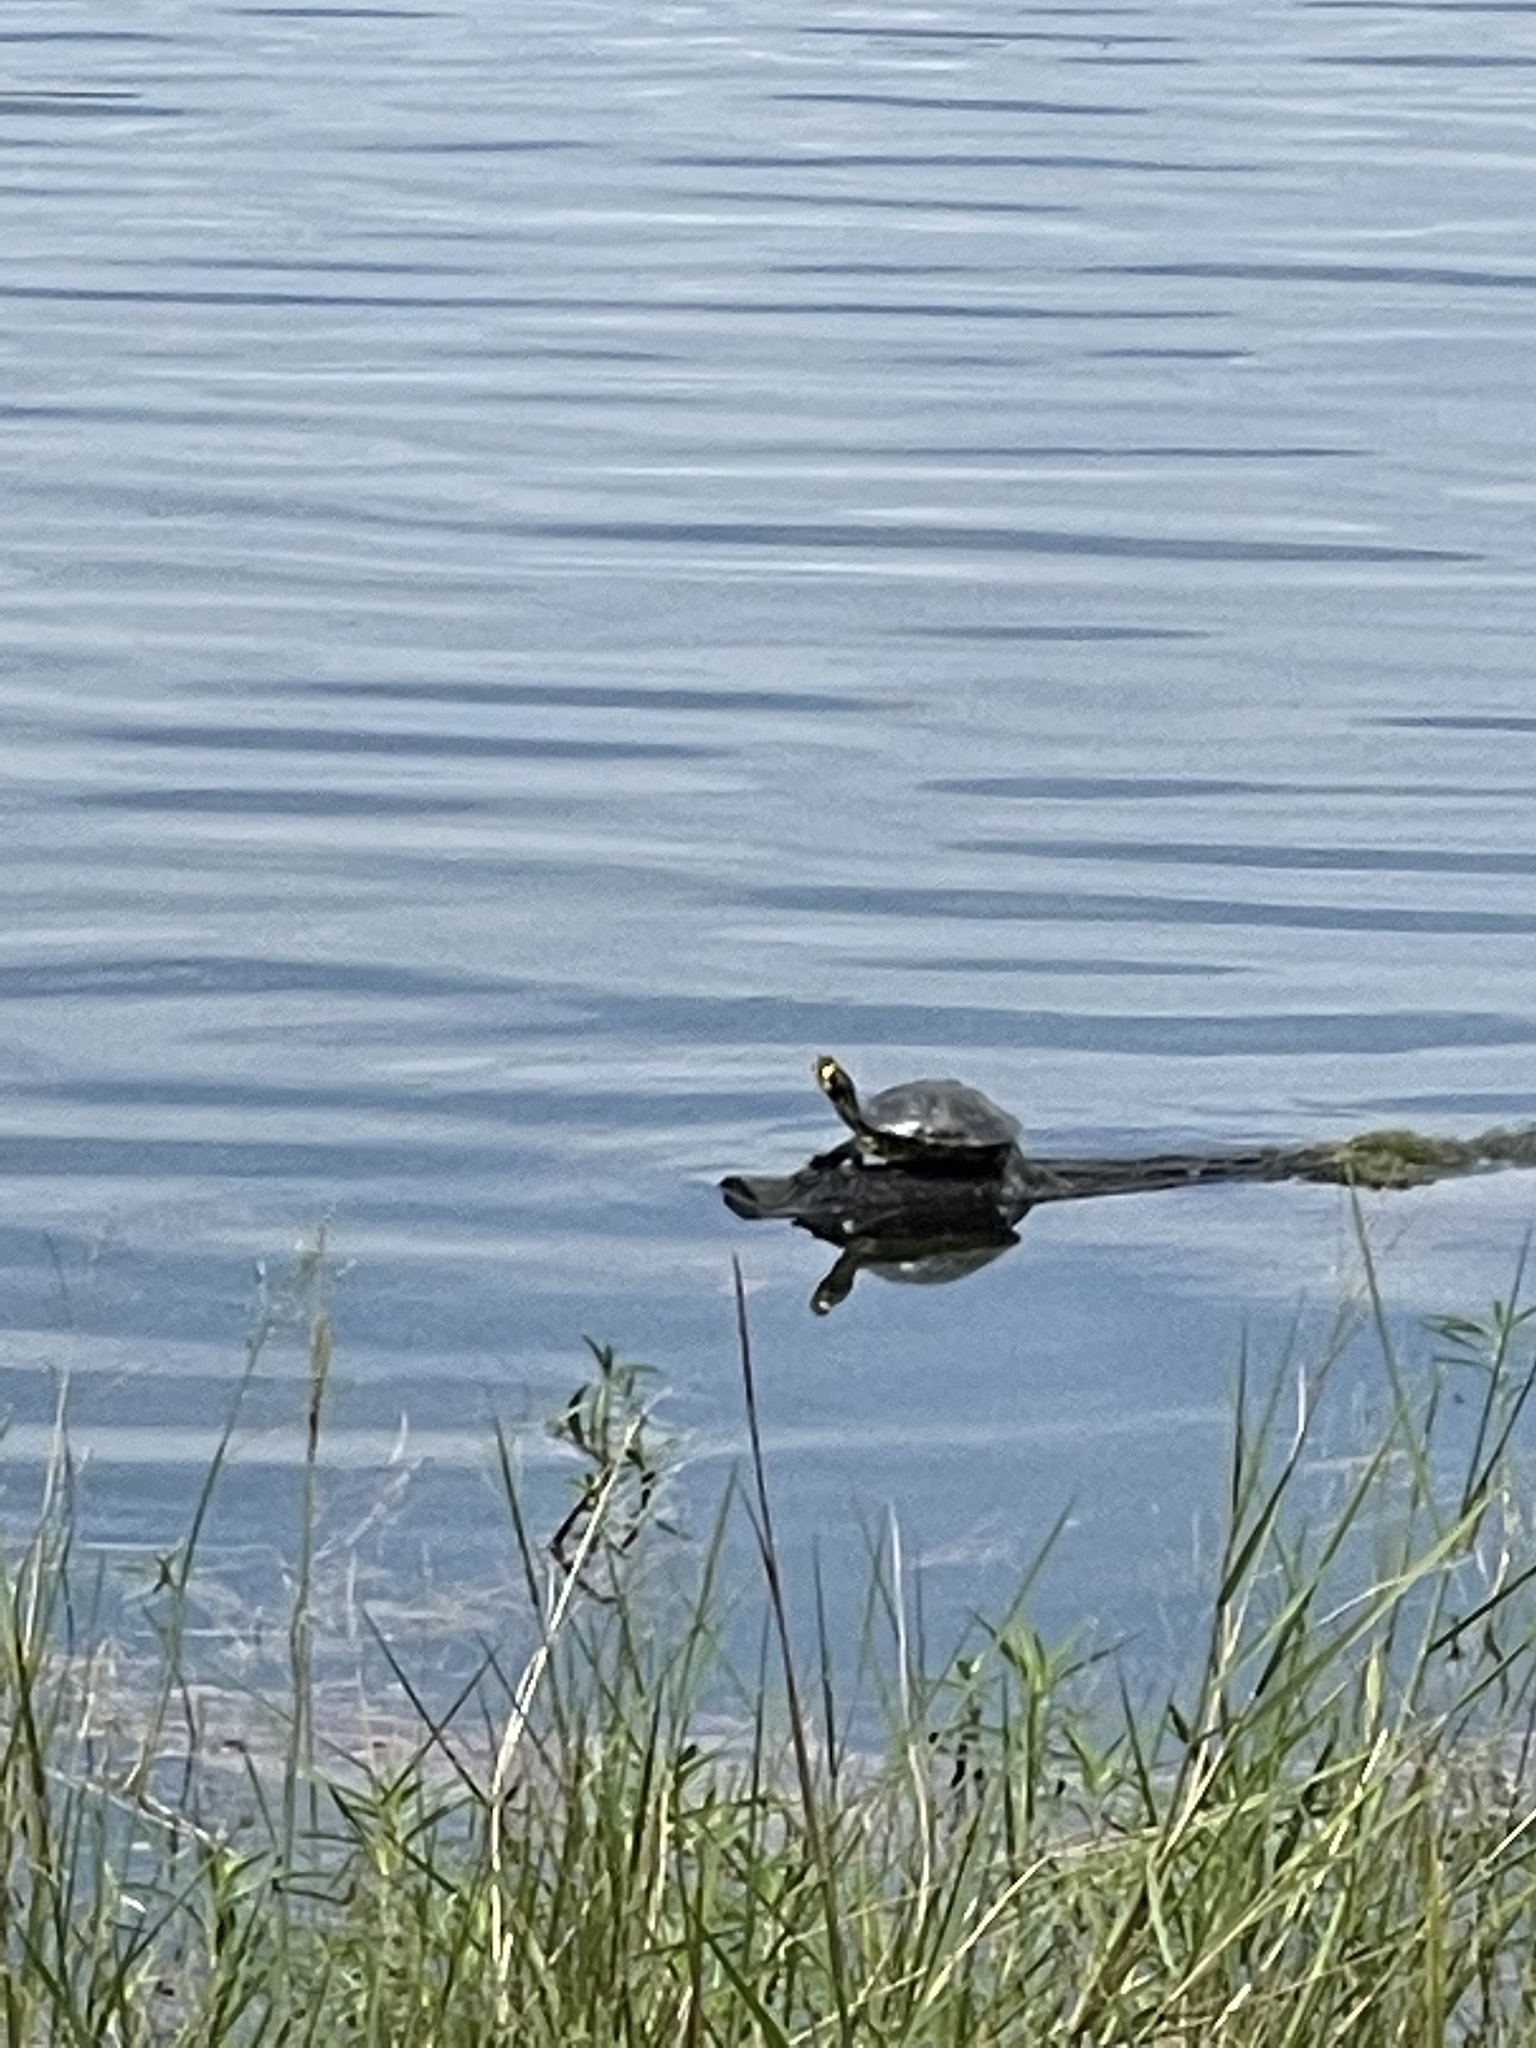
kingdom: Animalia
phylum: Chordata
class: Testudines
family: Emydidae
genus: Trachemys
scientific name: Trachemys scripta
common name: Slider
